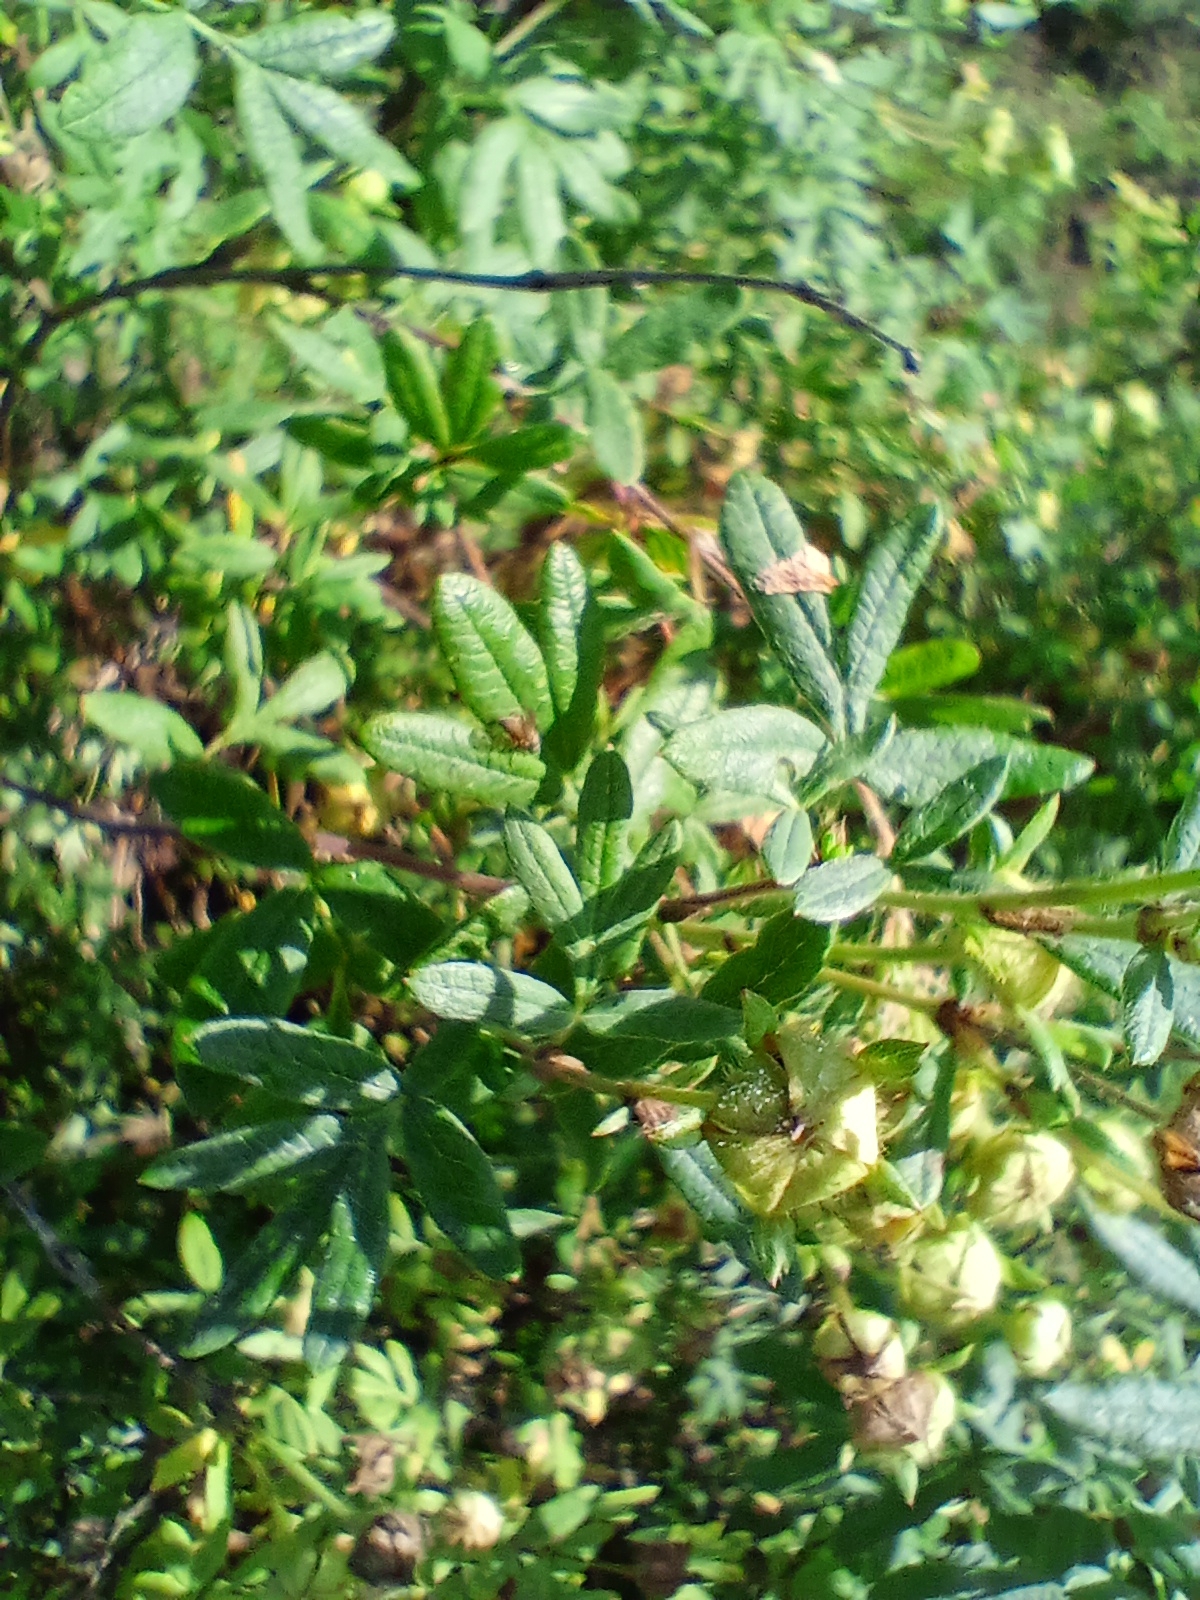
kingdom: Plantae
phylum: Tracheophyta
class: Magnoliopsida
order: Rosales
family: Rosaceae
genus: Dasiphora
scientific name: Dasiphora fruticosa
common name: Shrubby cinquefoil
